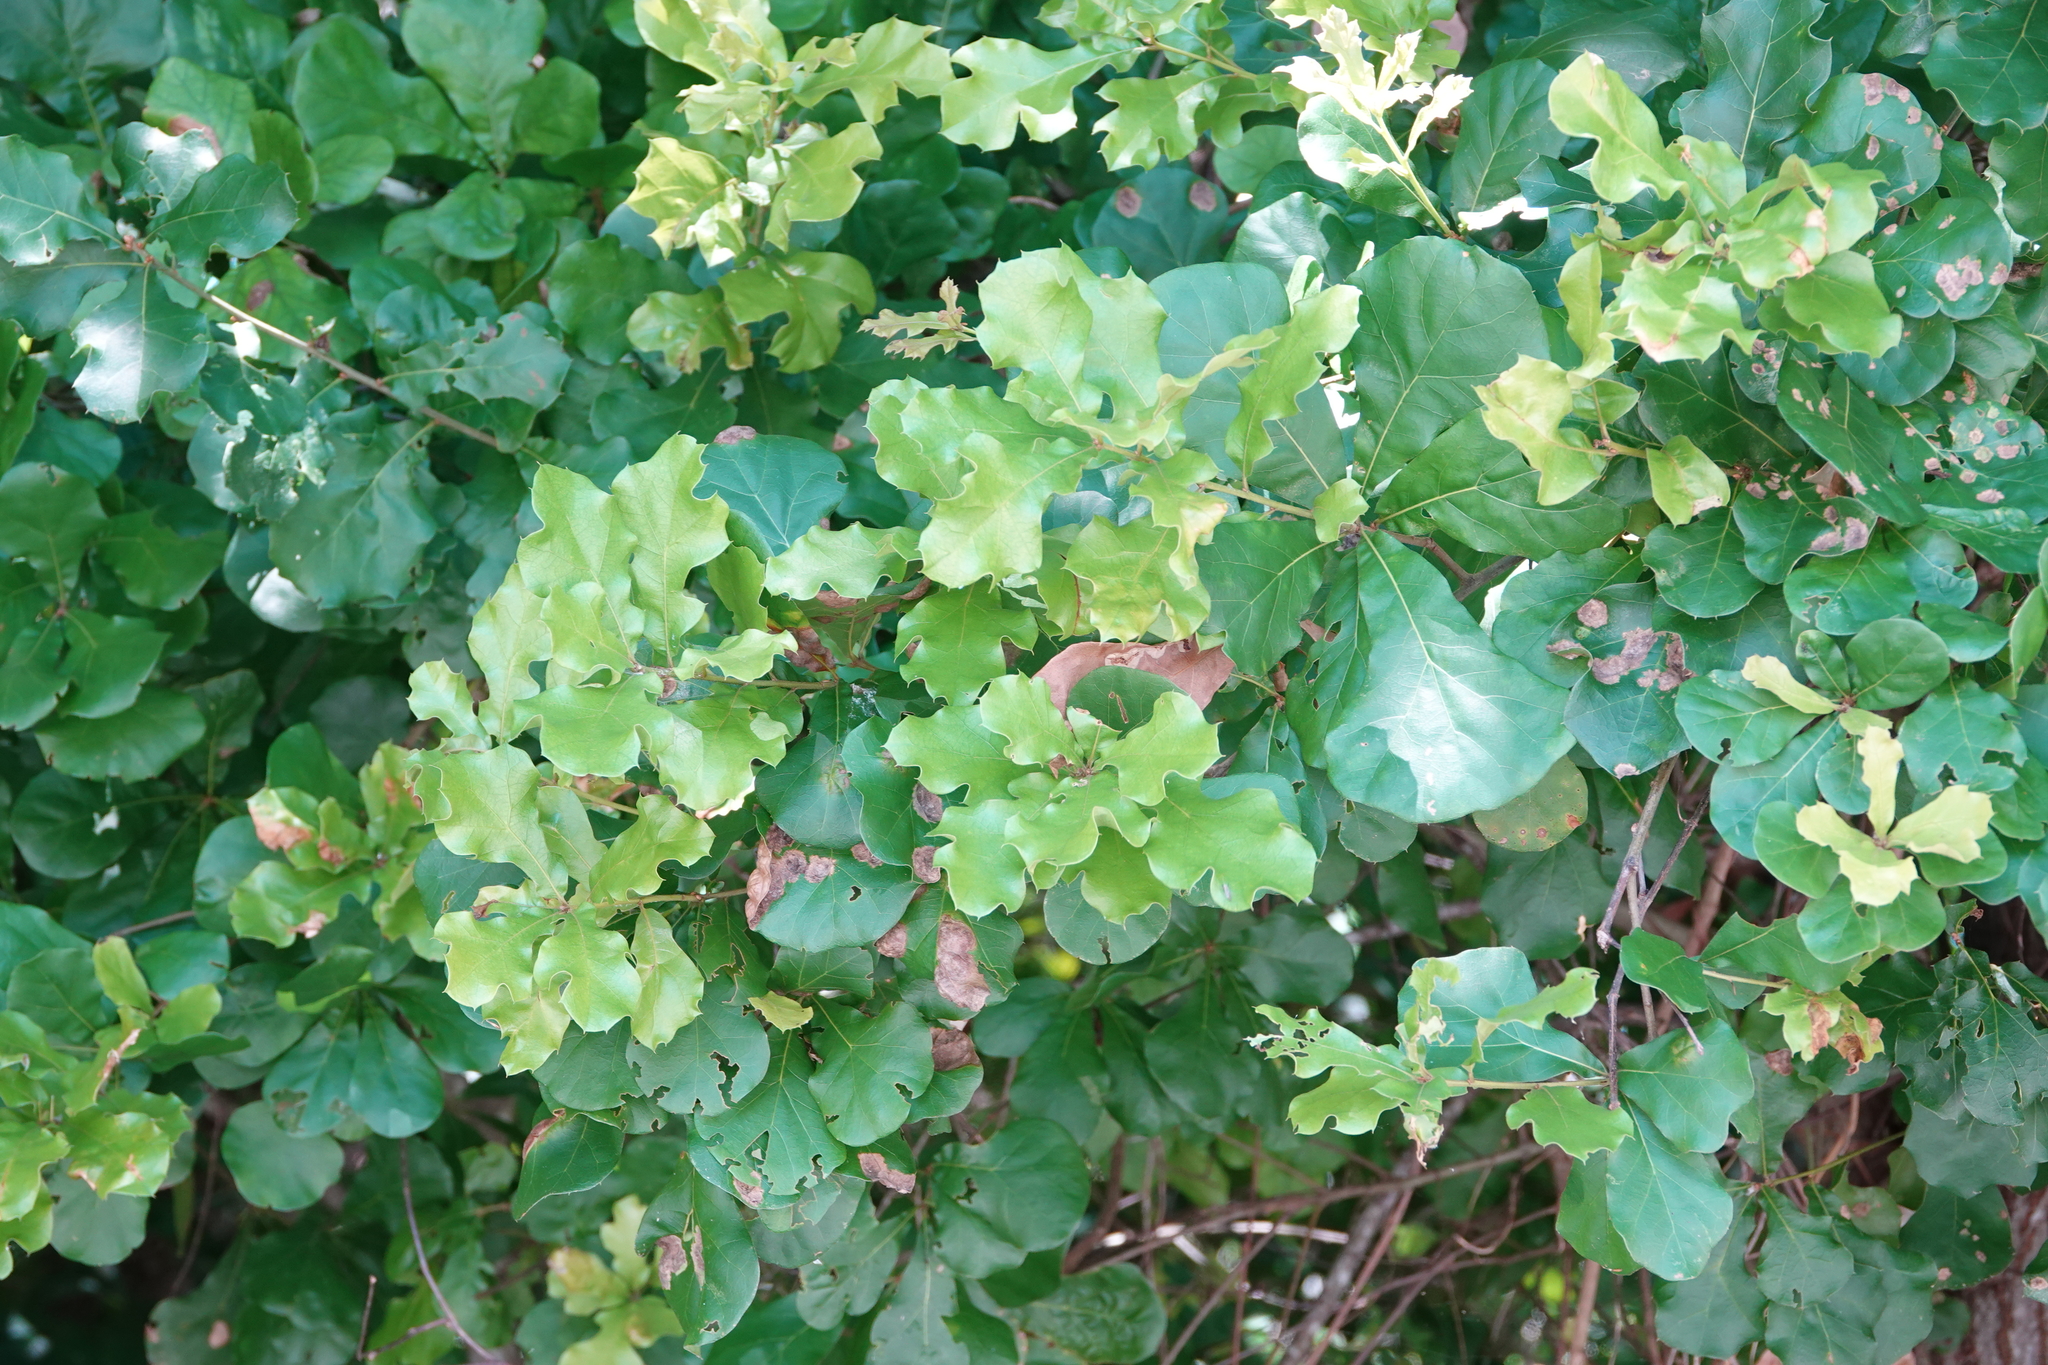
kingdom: Plantae
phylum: Tracheophyta
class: Magnoliopsida
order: Fagales
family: Fagaceae
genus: Quercus
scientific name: Quercus nigra
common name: Water oak
